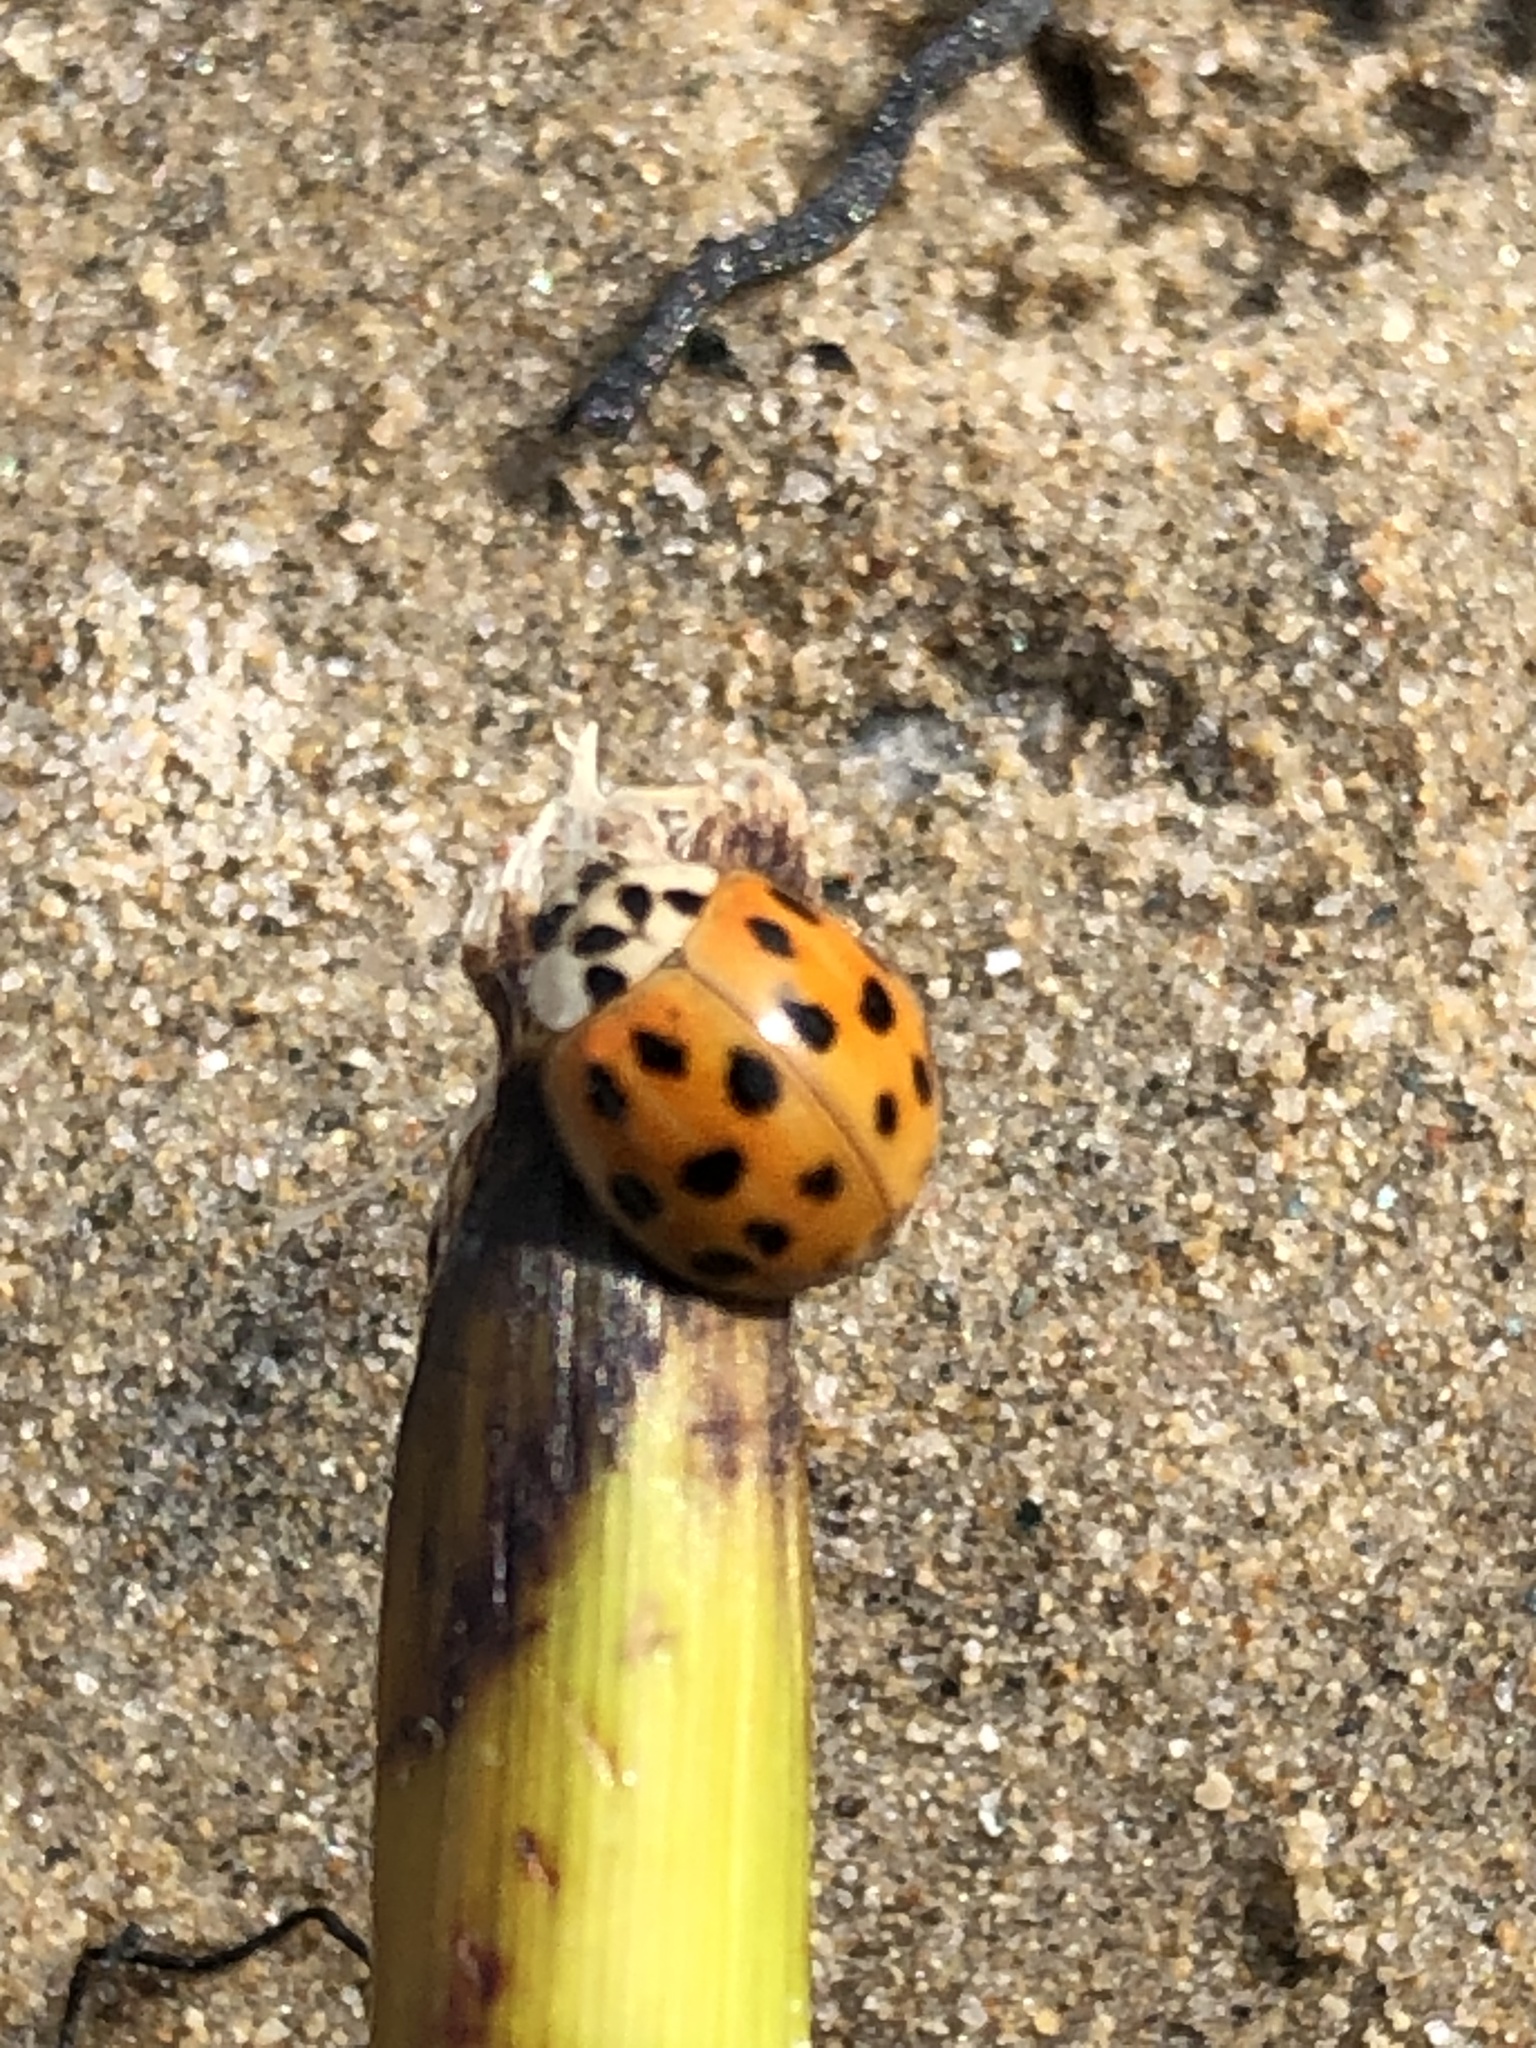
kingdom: Animalia
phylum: Arthropoda
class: Insecta
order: Coleoptera
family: Coccinellidae
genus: Harmonia
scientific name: Harmonia axyridis
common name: Harlequin ladybird
